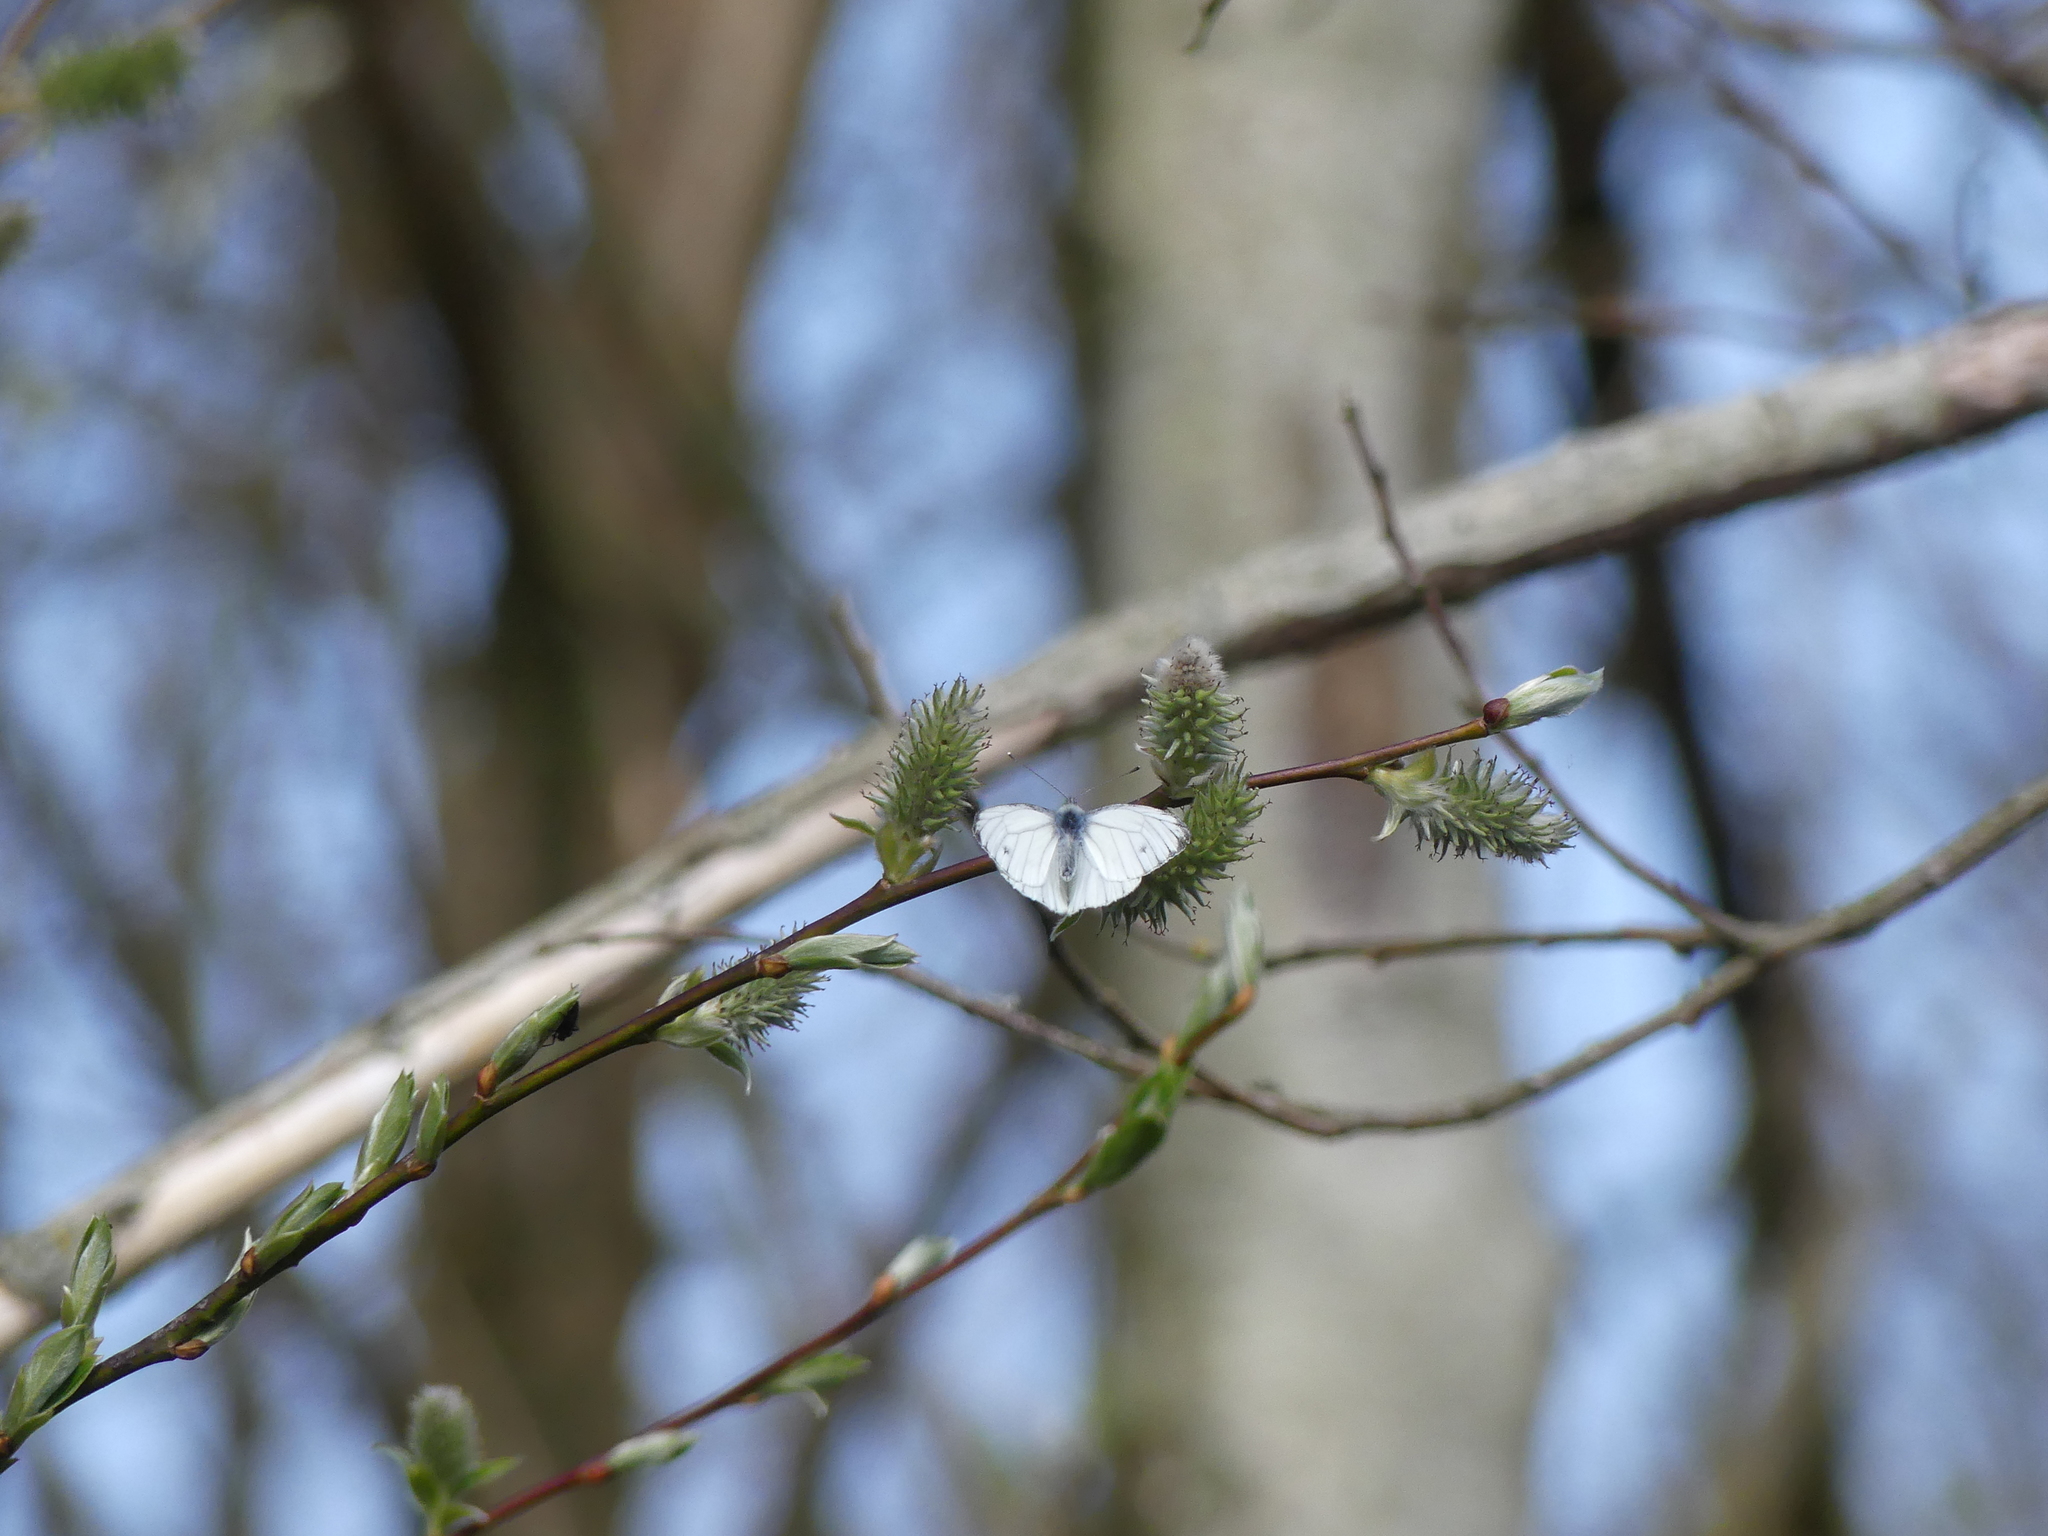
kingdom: Animalia
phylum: Arthropoda
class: Insecta
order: Lepidoptera
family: Pieridae
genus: Pieris
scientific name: Pieris napi
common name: Green-veined white
